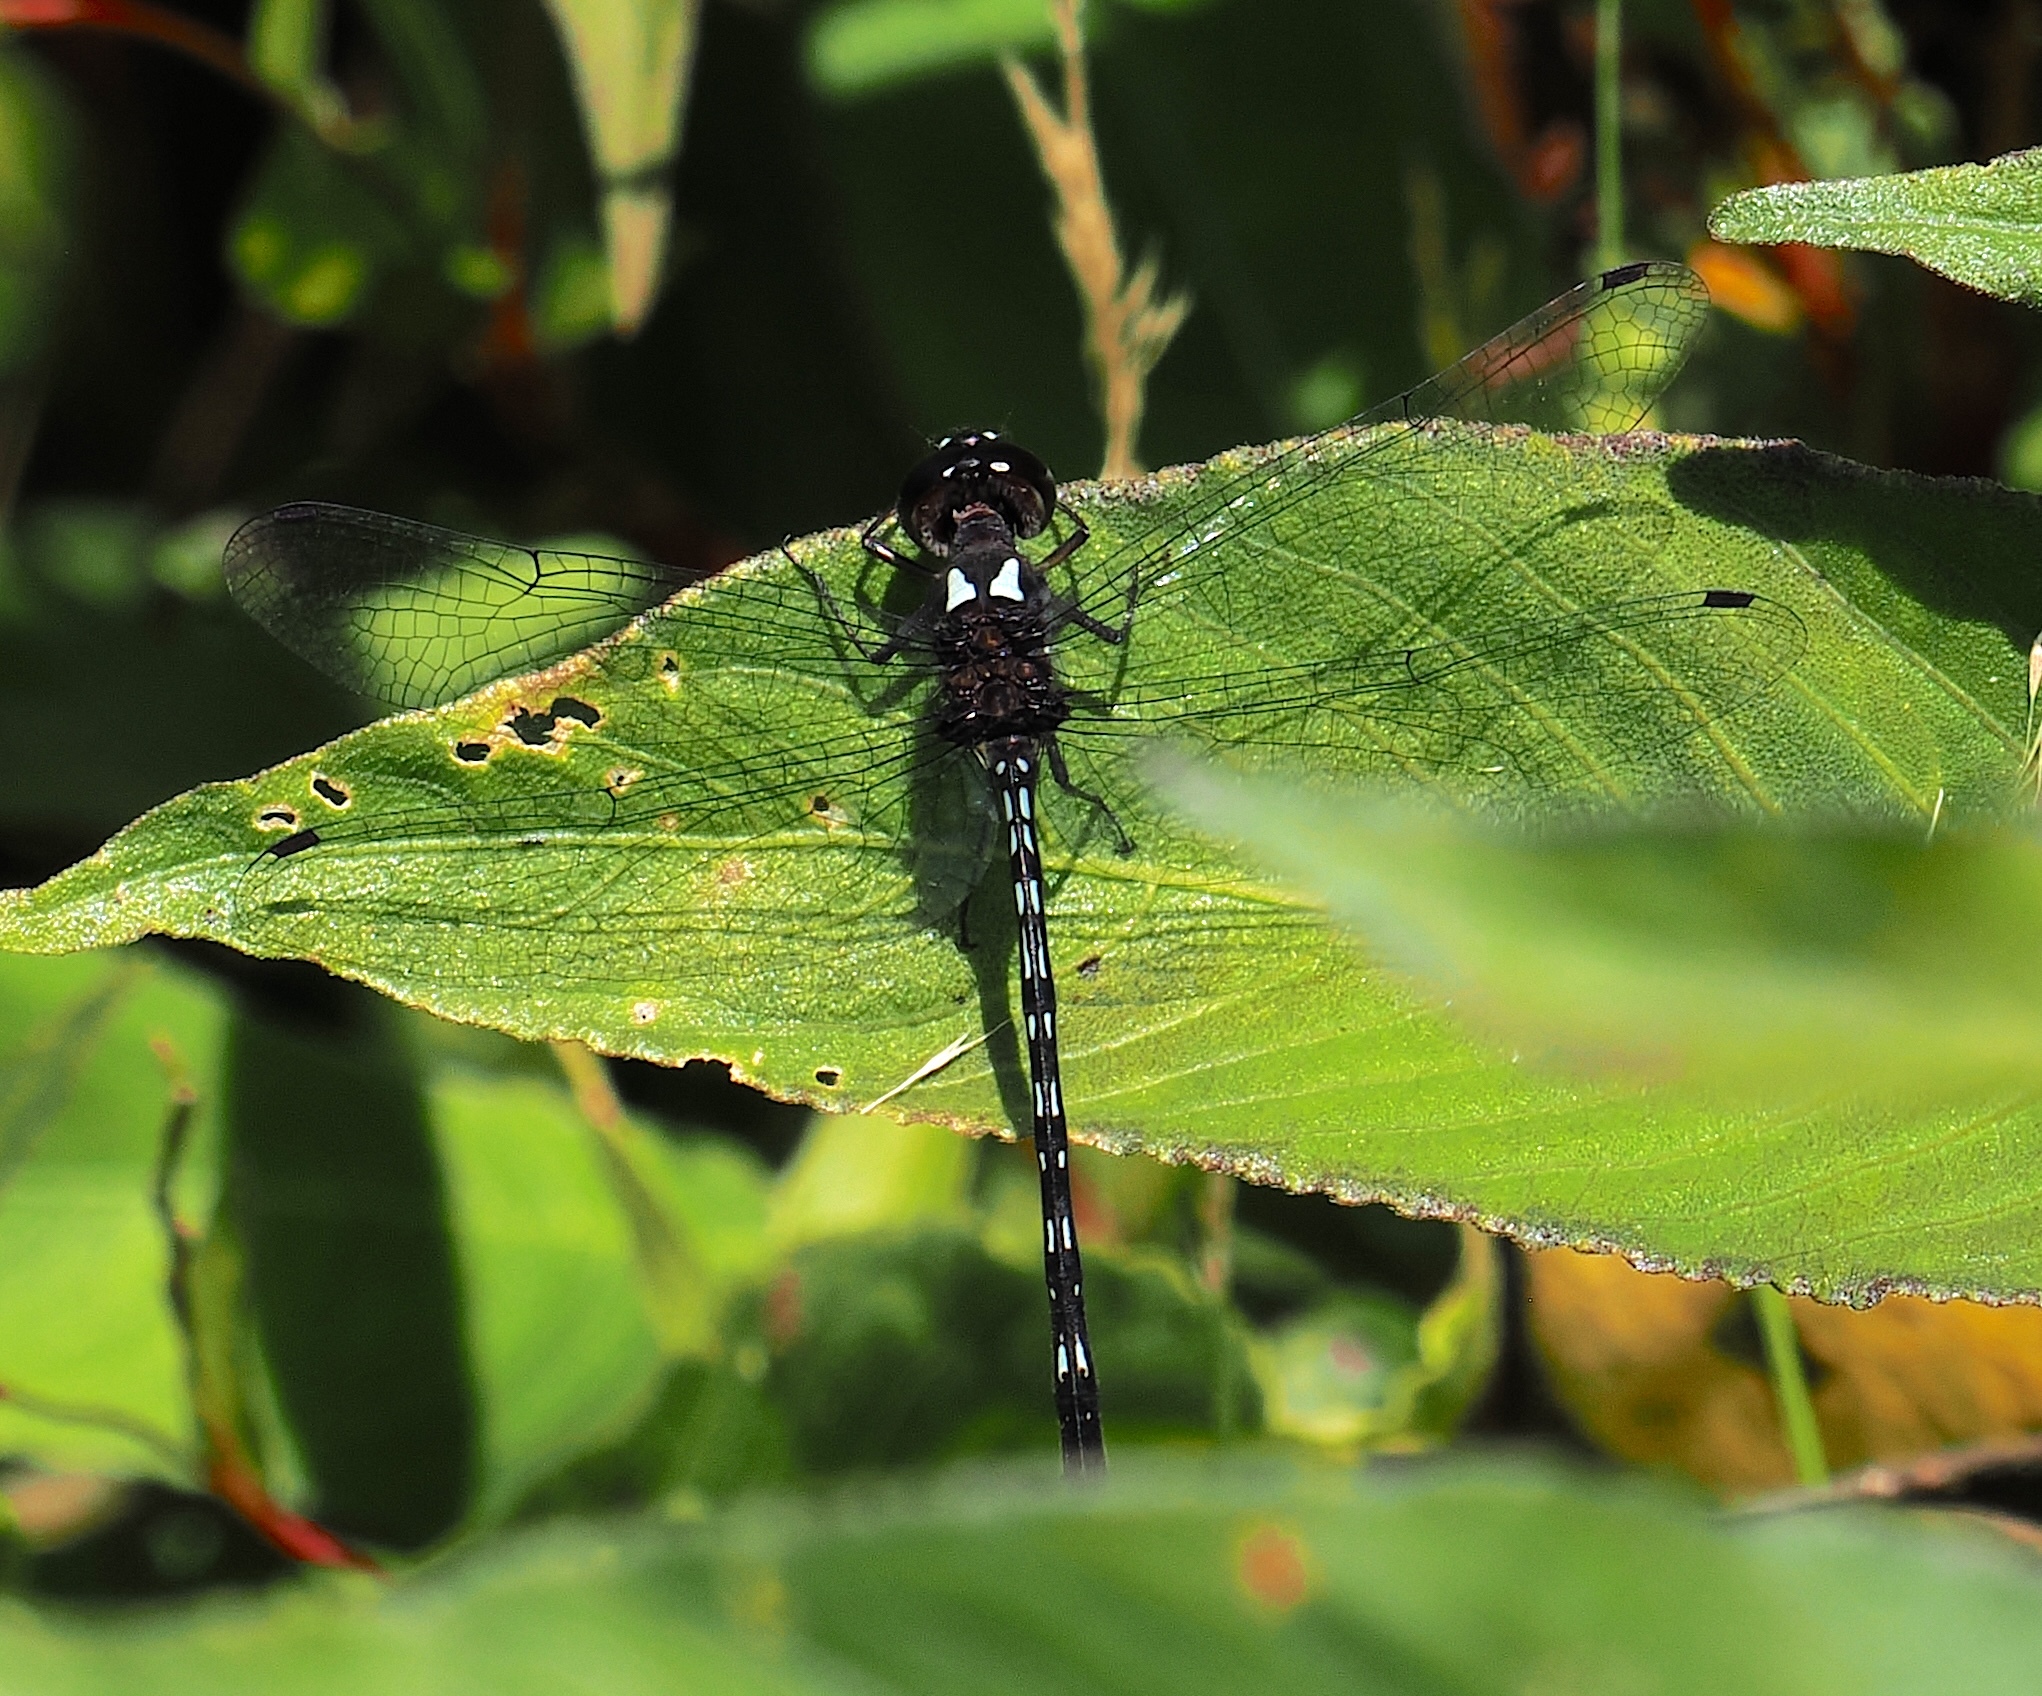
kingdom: Animalia
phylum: Arthropoda
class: Insecta
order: Odonata
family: Libellulidae
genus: Macrothemis
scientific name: Macrothemis tenuis
